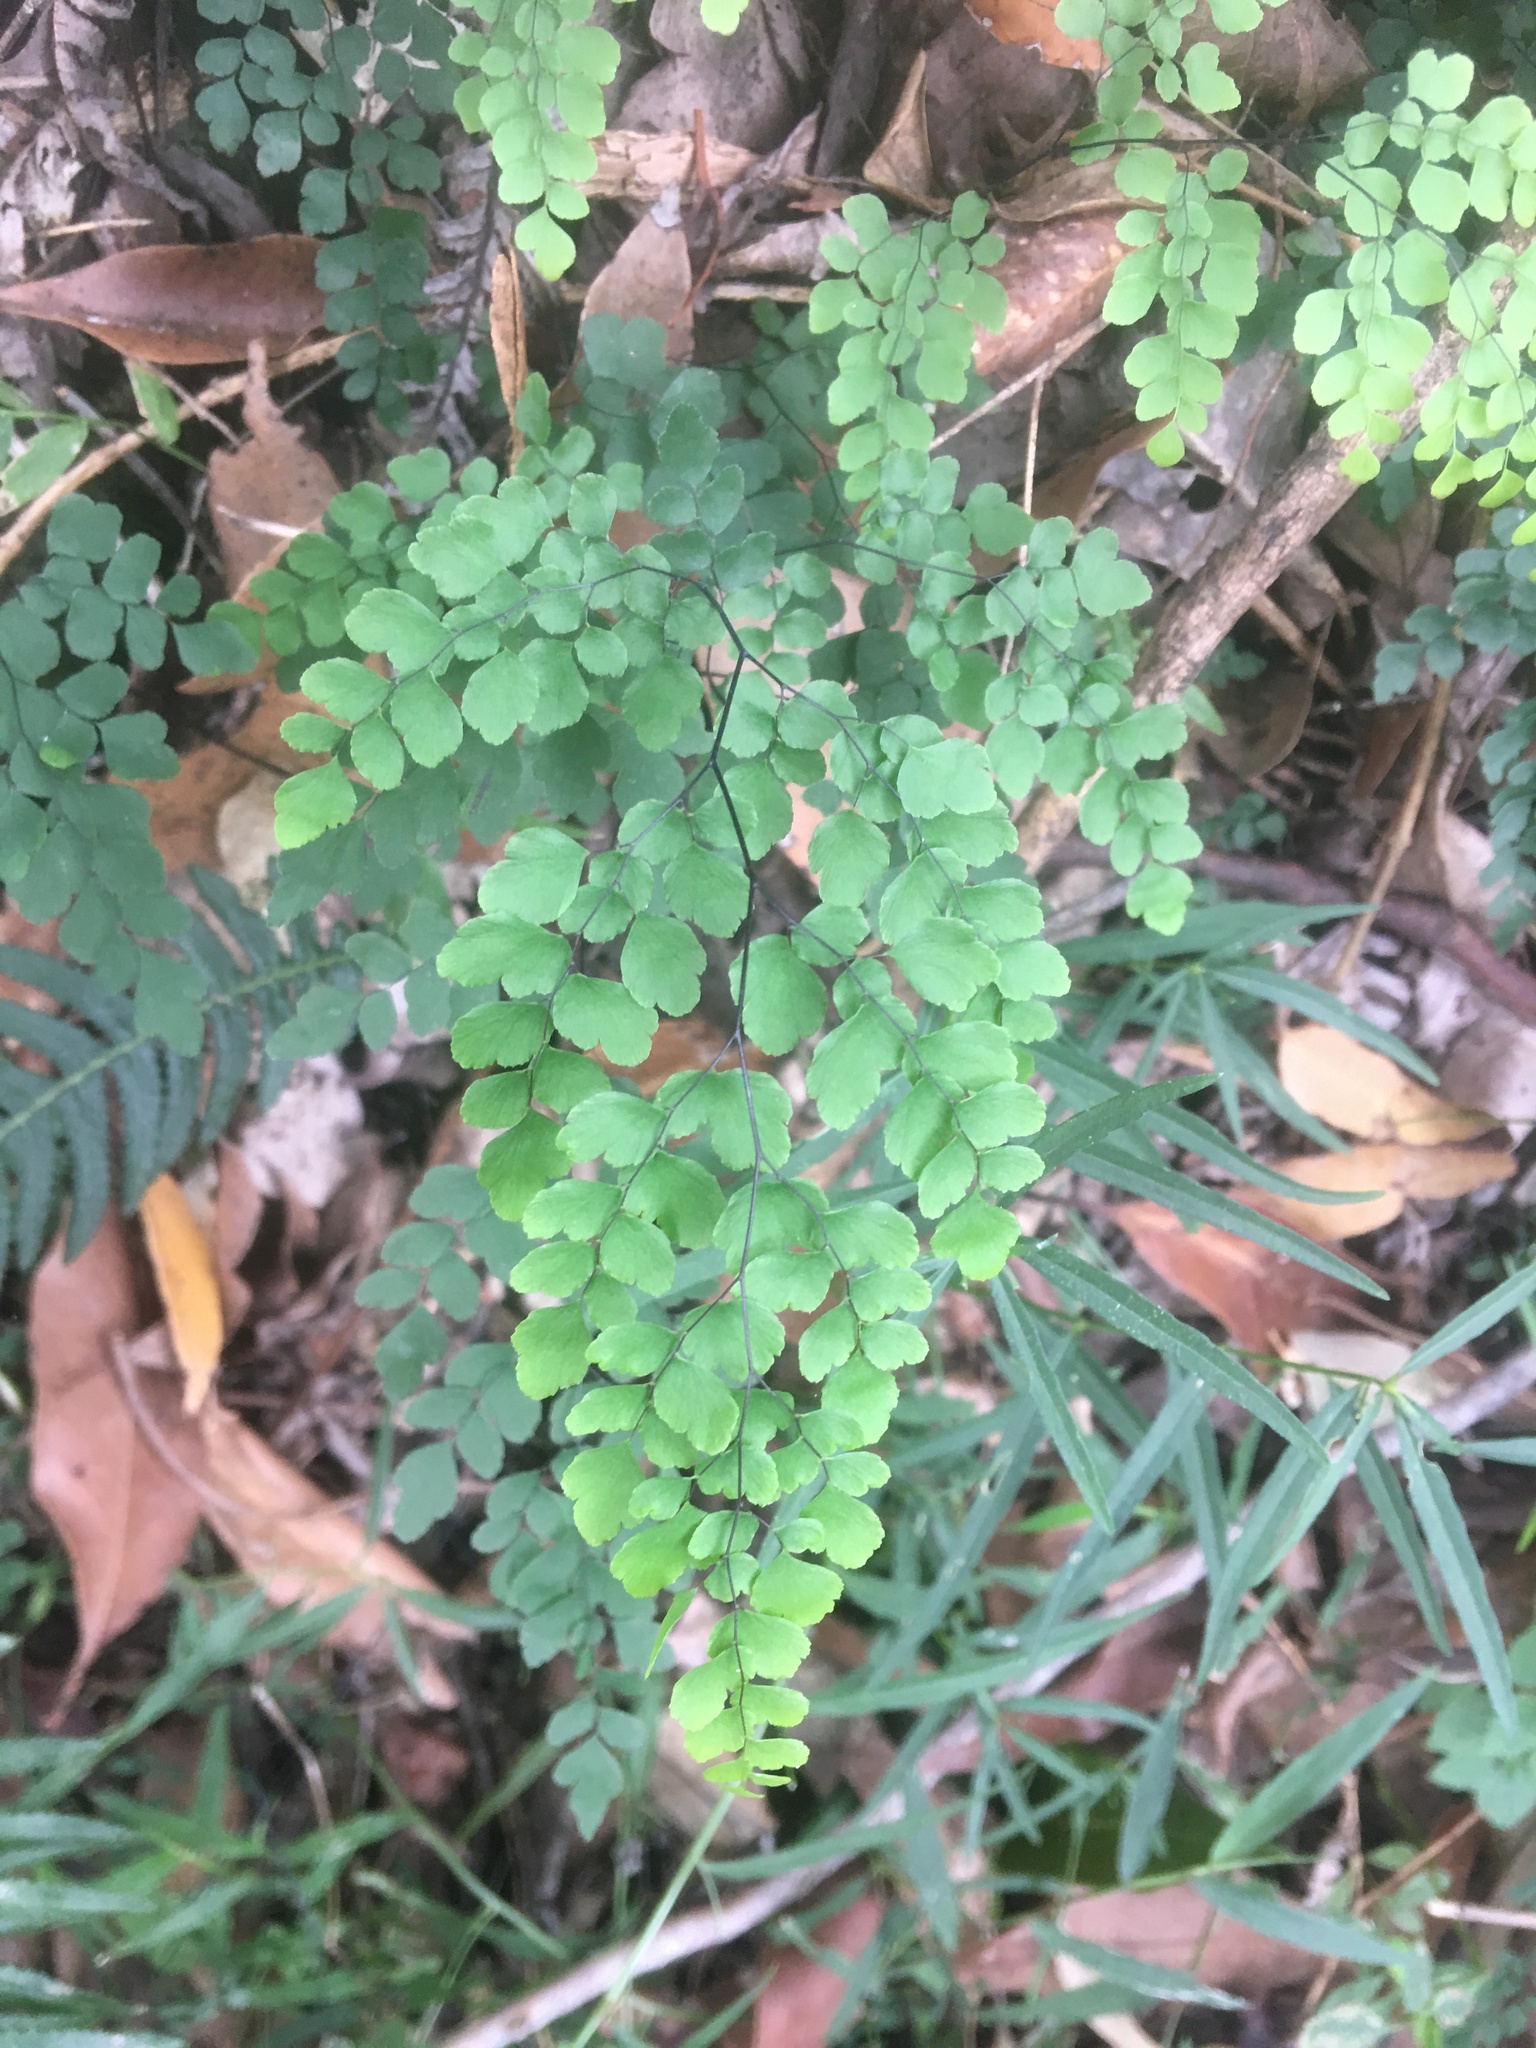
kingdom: Plantae
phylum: Tracheophyta
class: Polypodiopsida
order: Polypodiales
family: Pteridaceae
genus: Adiantum
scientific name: Adiantum aethiopicum
